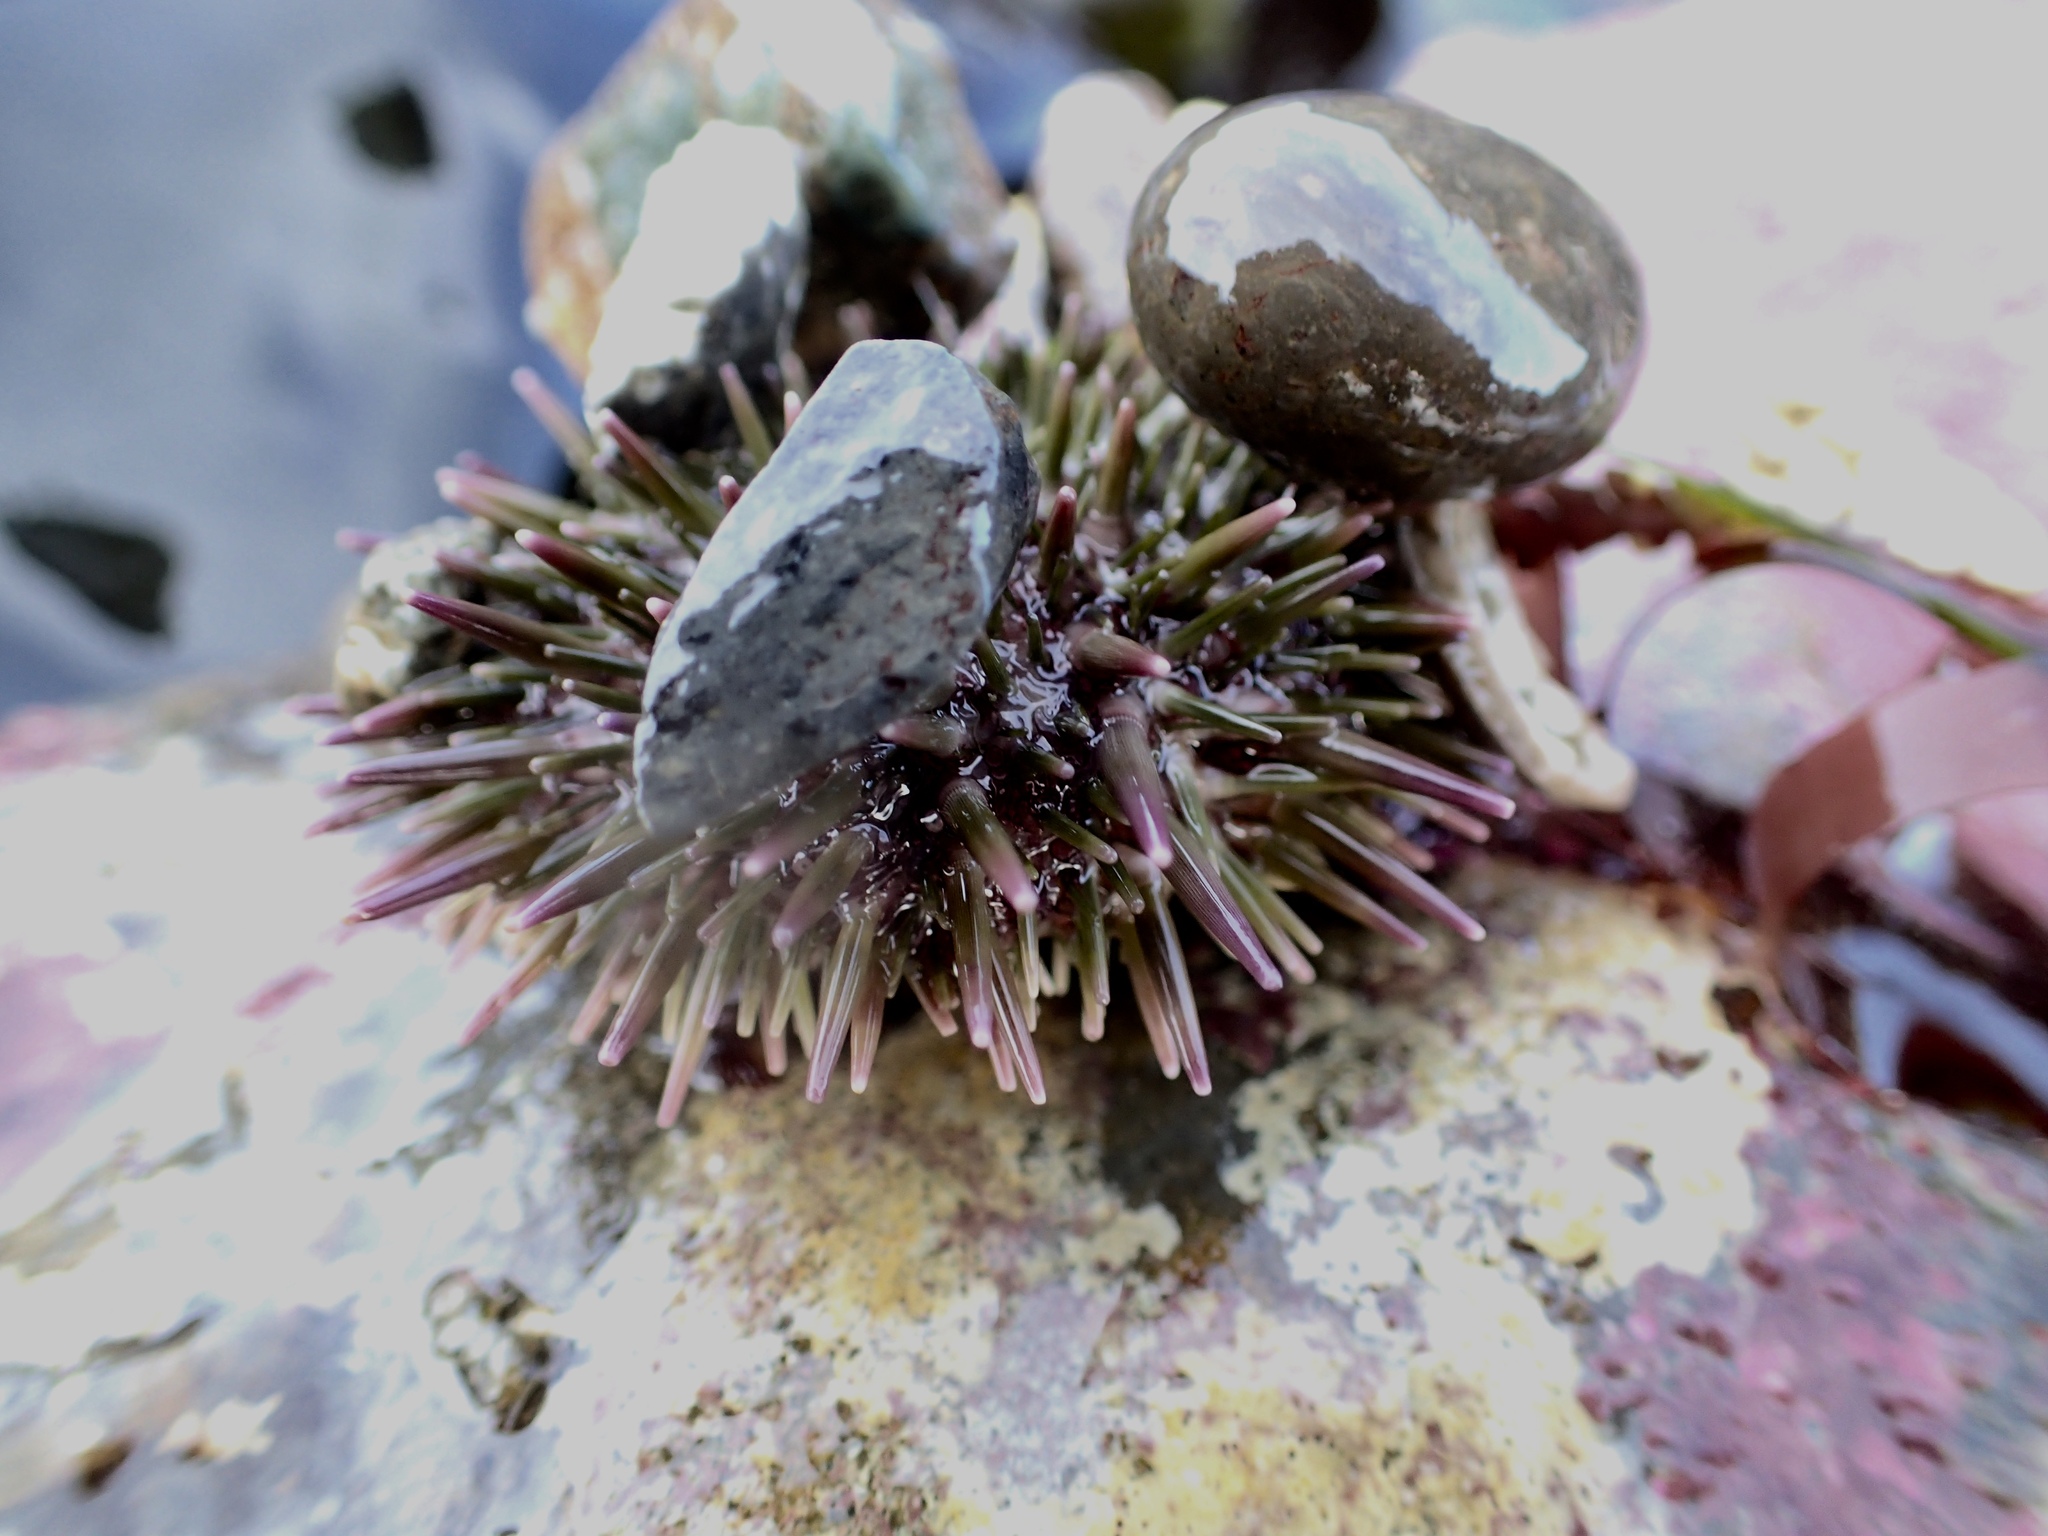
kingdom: Animalia
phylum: Echinodermata
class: Echinoidea
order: Camarodonta
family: Strongylocentrotidae
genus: Strongylocentrotus
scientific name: Strongylocentrotus purpuratus
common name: Purple sea urchin
